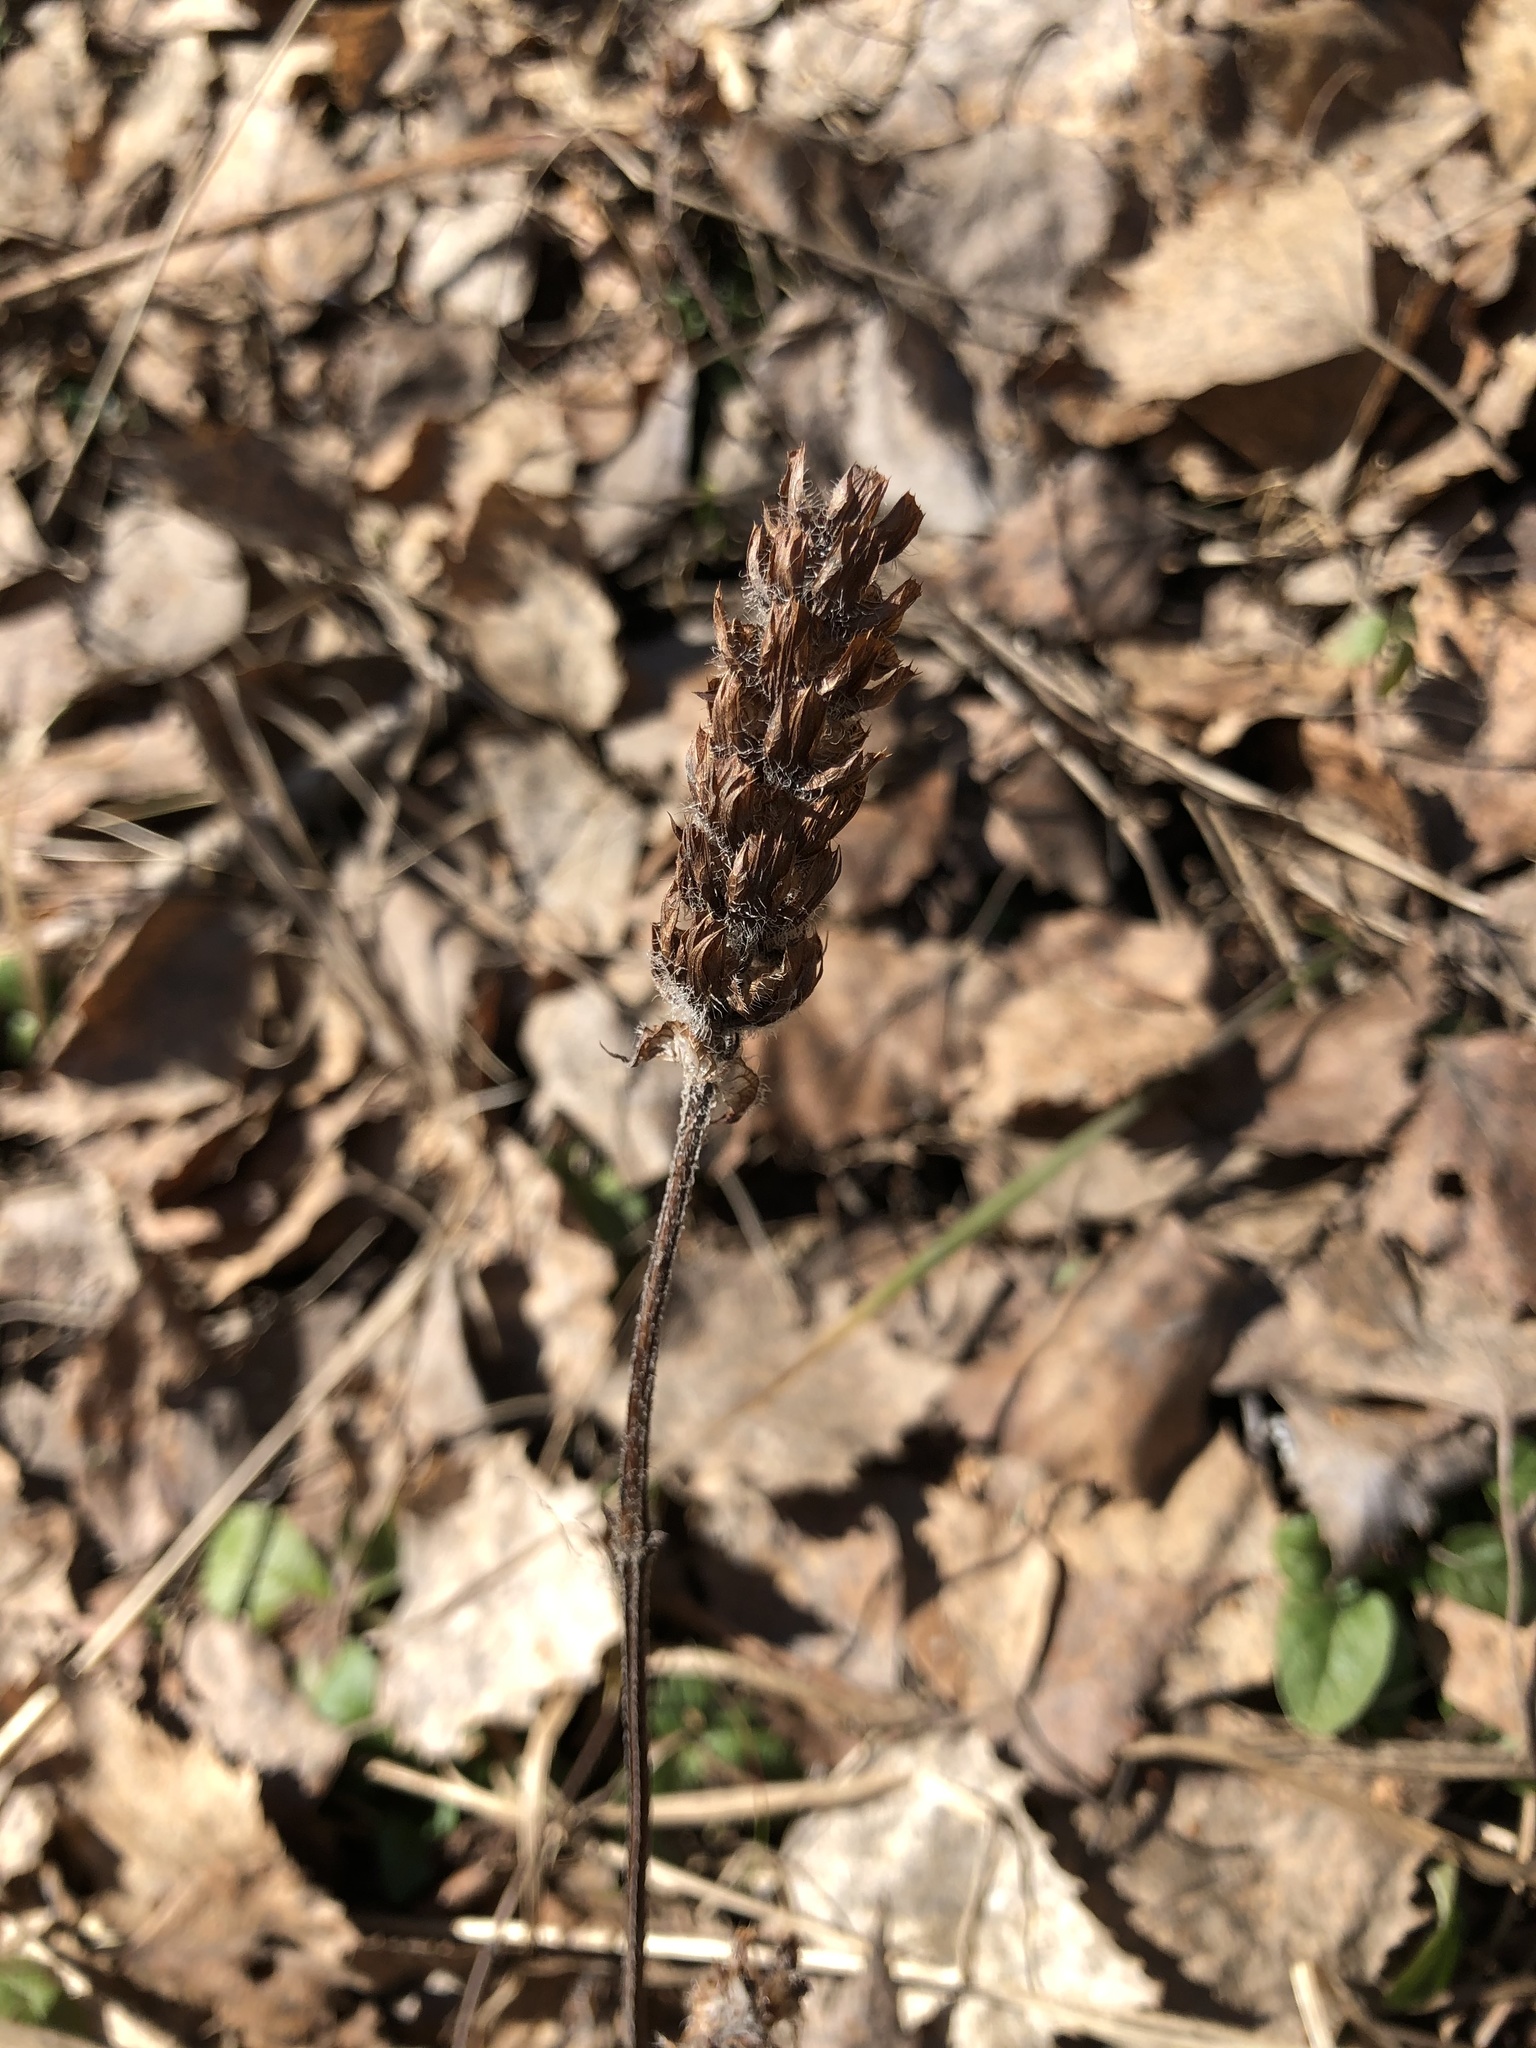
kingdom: Plantae
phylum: Tracheophyta
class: Magnoliopsida
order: Lamiales
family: Lamiaceae
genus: Prunella
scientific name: Prunella vulgaris
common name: Heal-all
